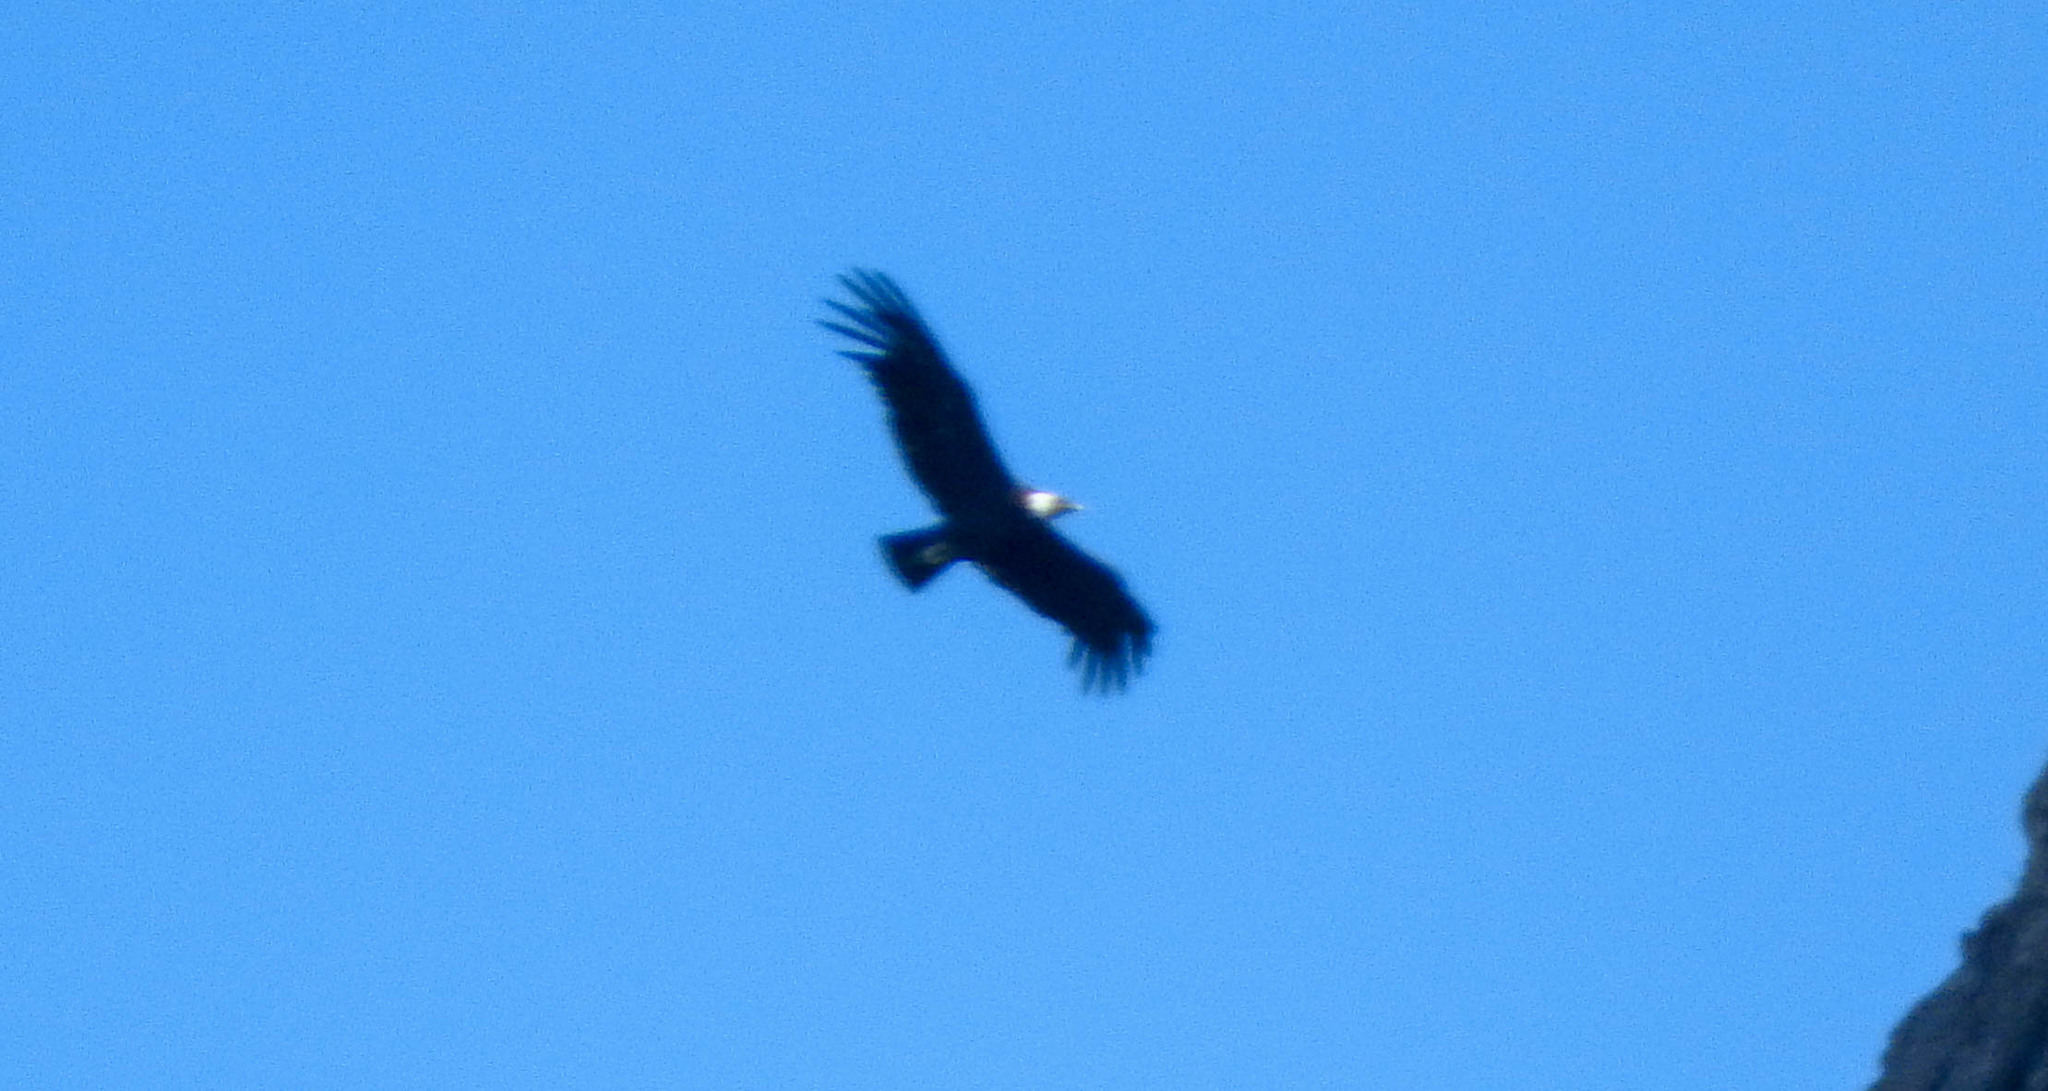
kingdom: Animalia
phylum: Chordata
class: Aves
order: Accipitriformes
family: Cathartidae
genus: Vultur
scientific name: Vultur gryphus
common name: Andean condor
